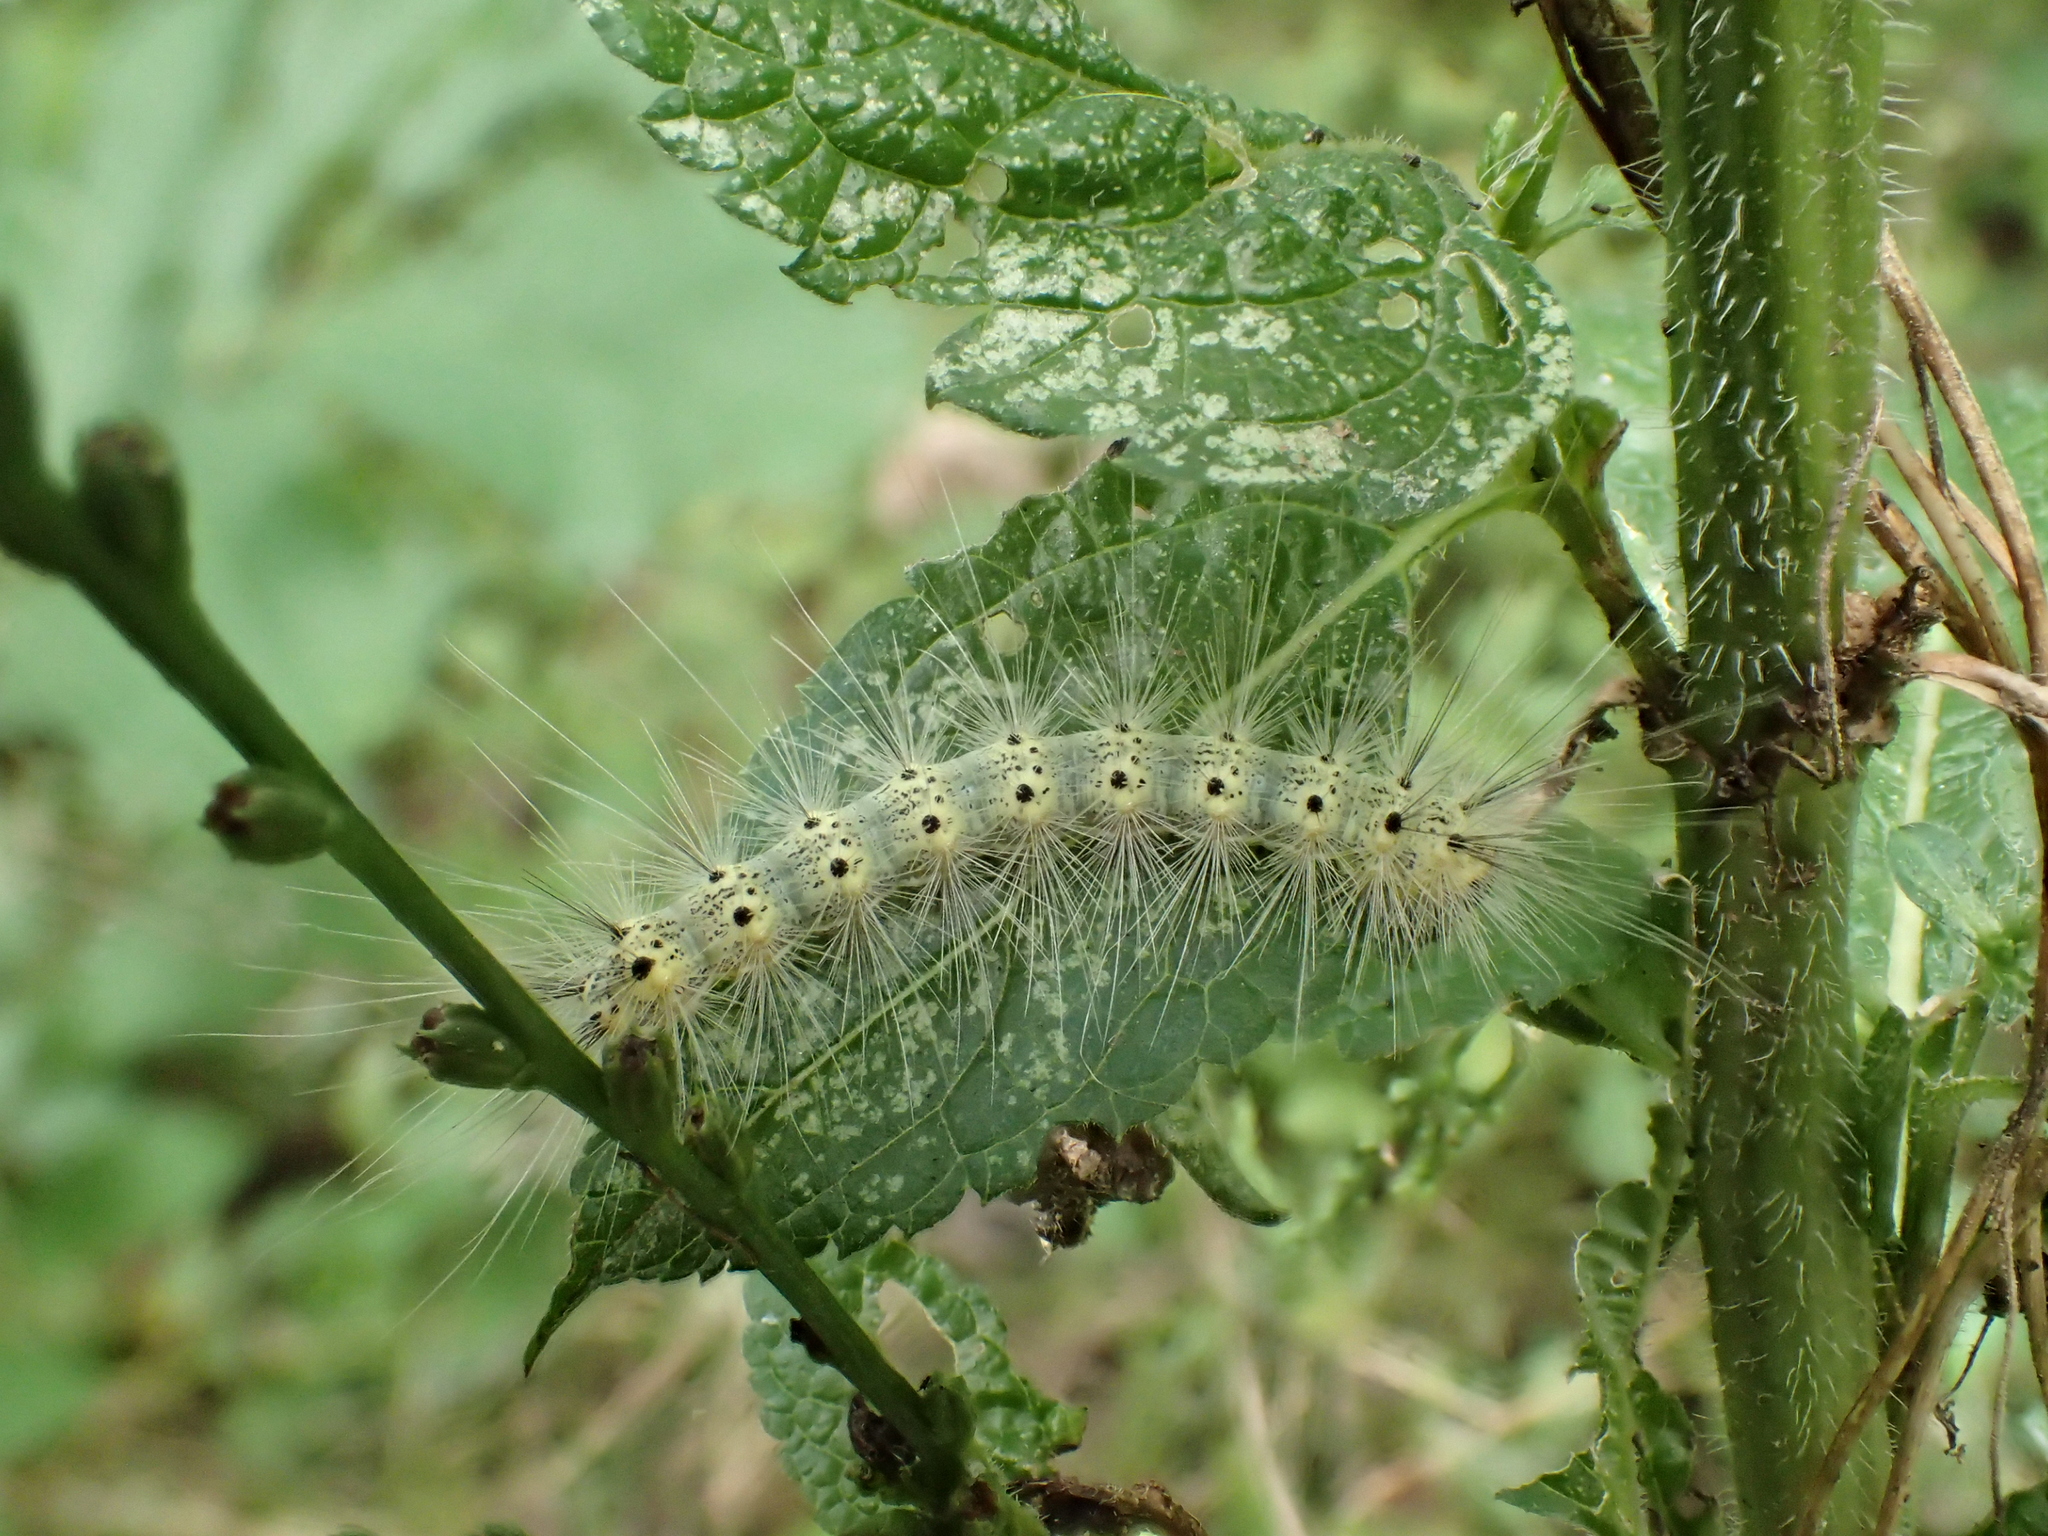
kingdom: Animalia
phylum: Arthropoda
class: Insecta
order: Lepidoptera
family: Erebidae
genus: Hyphantria
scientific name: Hyphantria cunea
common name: American white moth
